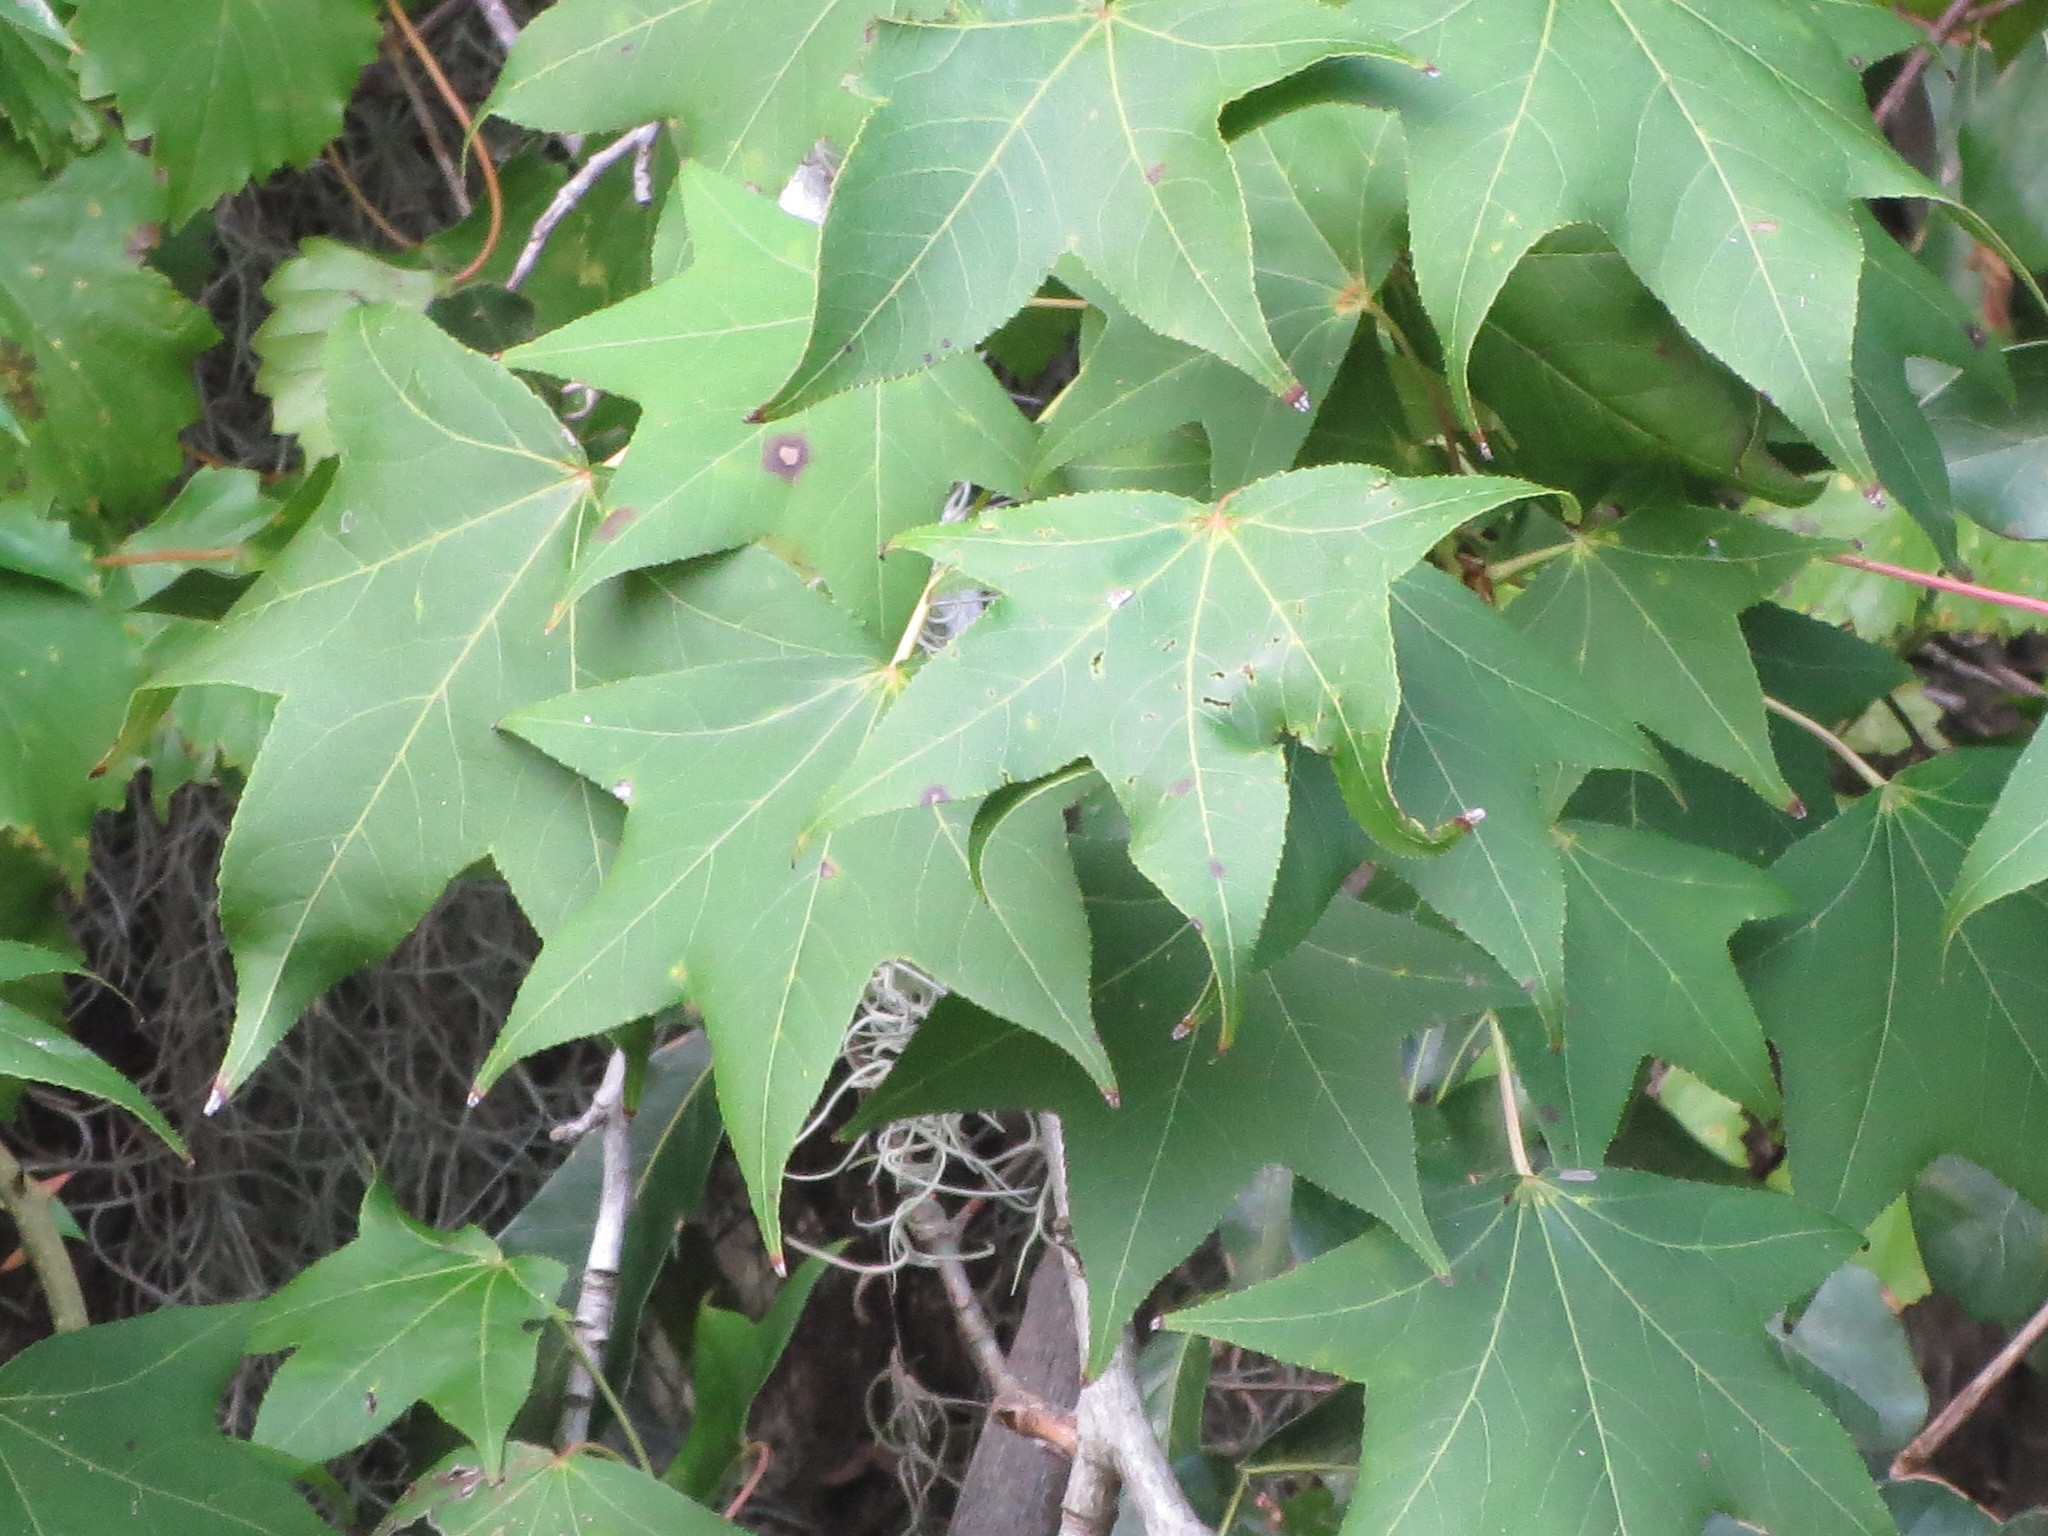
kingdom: Plantae
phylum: Tracheophyta
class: Magnoliopsida
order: Saxifragales
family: Altingiaceae
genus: Liquidambar
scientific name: Liquidambar styraciflua
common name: Sweet gum
